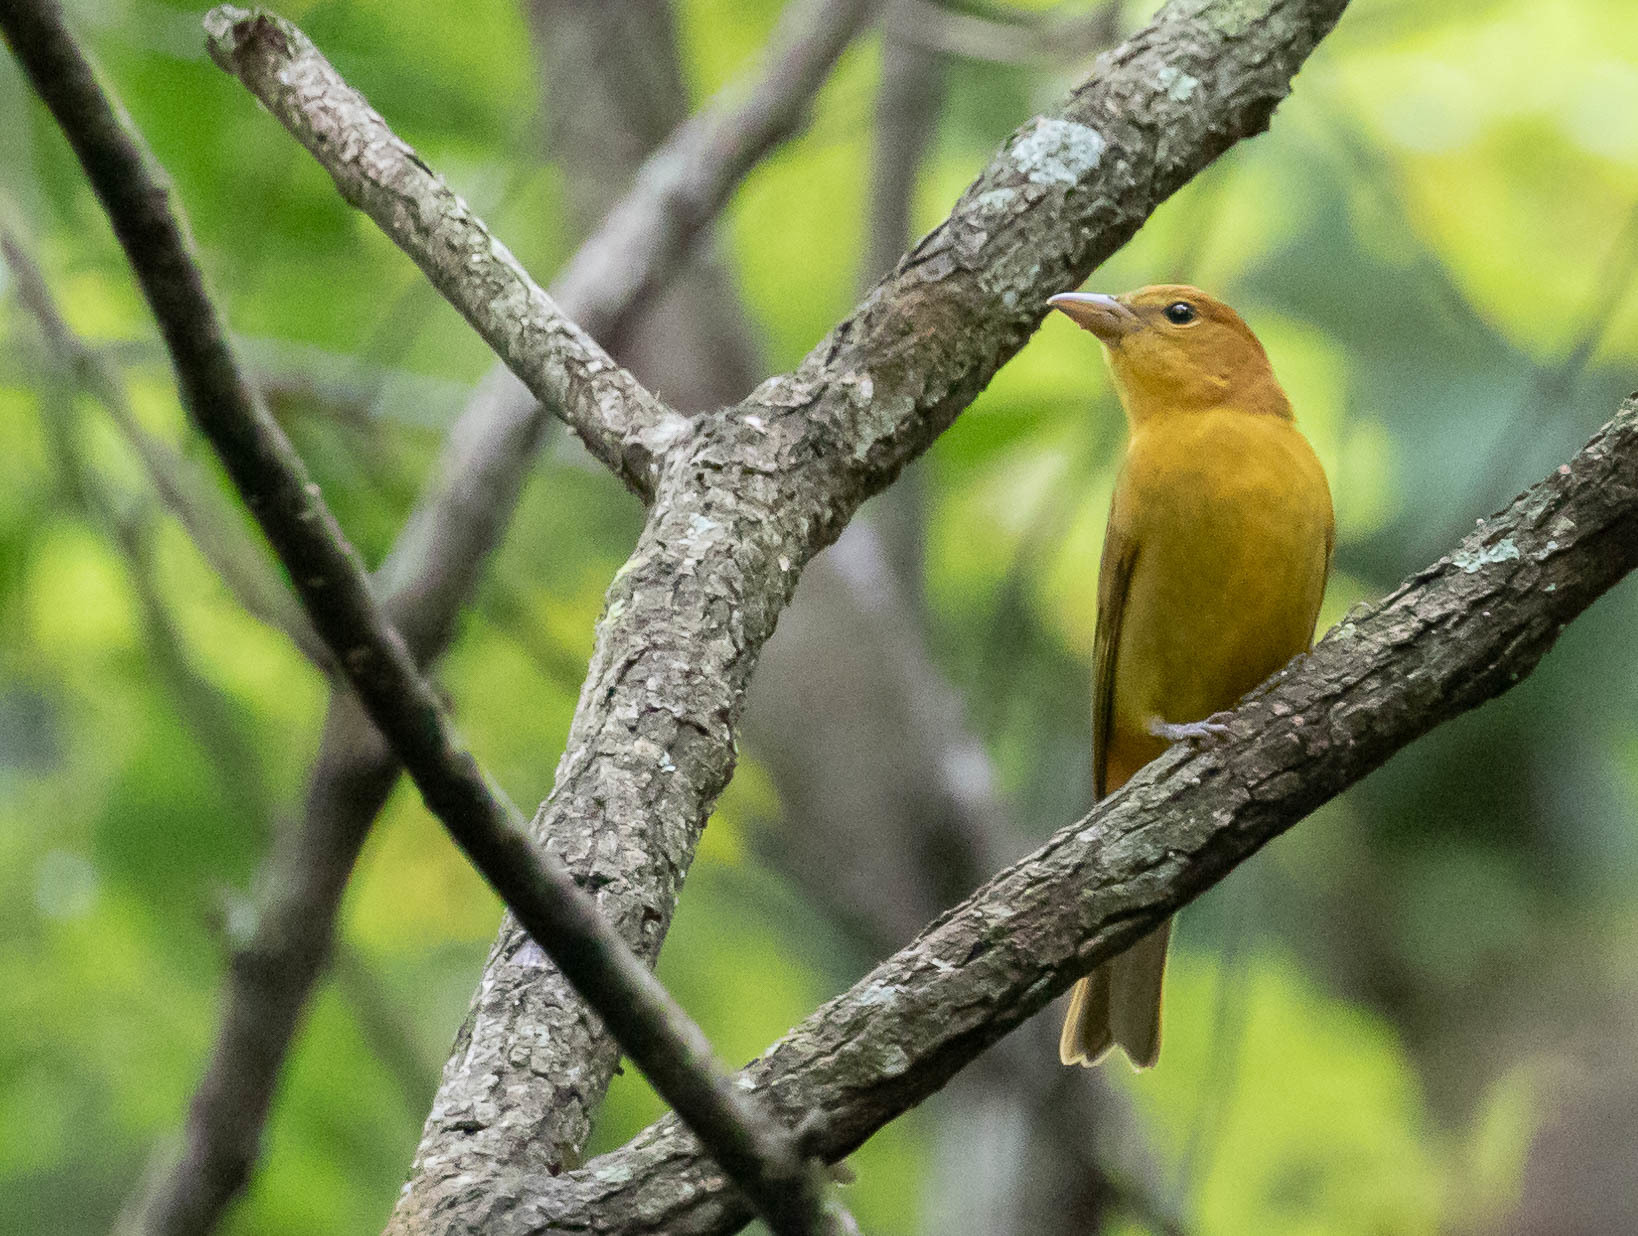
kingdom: Animalia
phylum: Chordata
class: Aves
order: Passeriformes
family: Cardinalidae
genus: Piranga
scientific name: Piranga rubra
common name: Summer tanager
